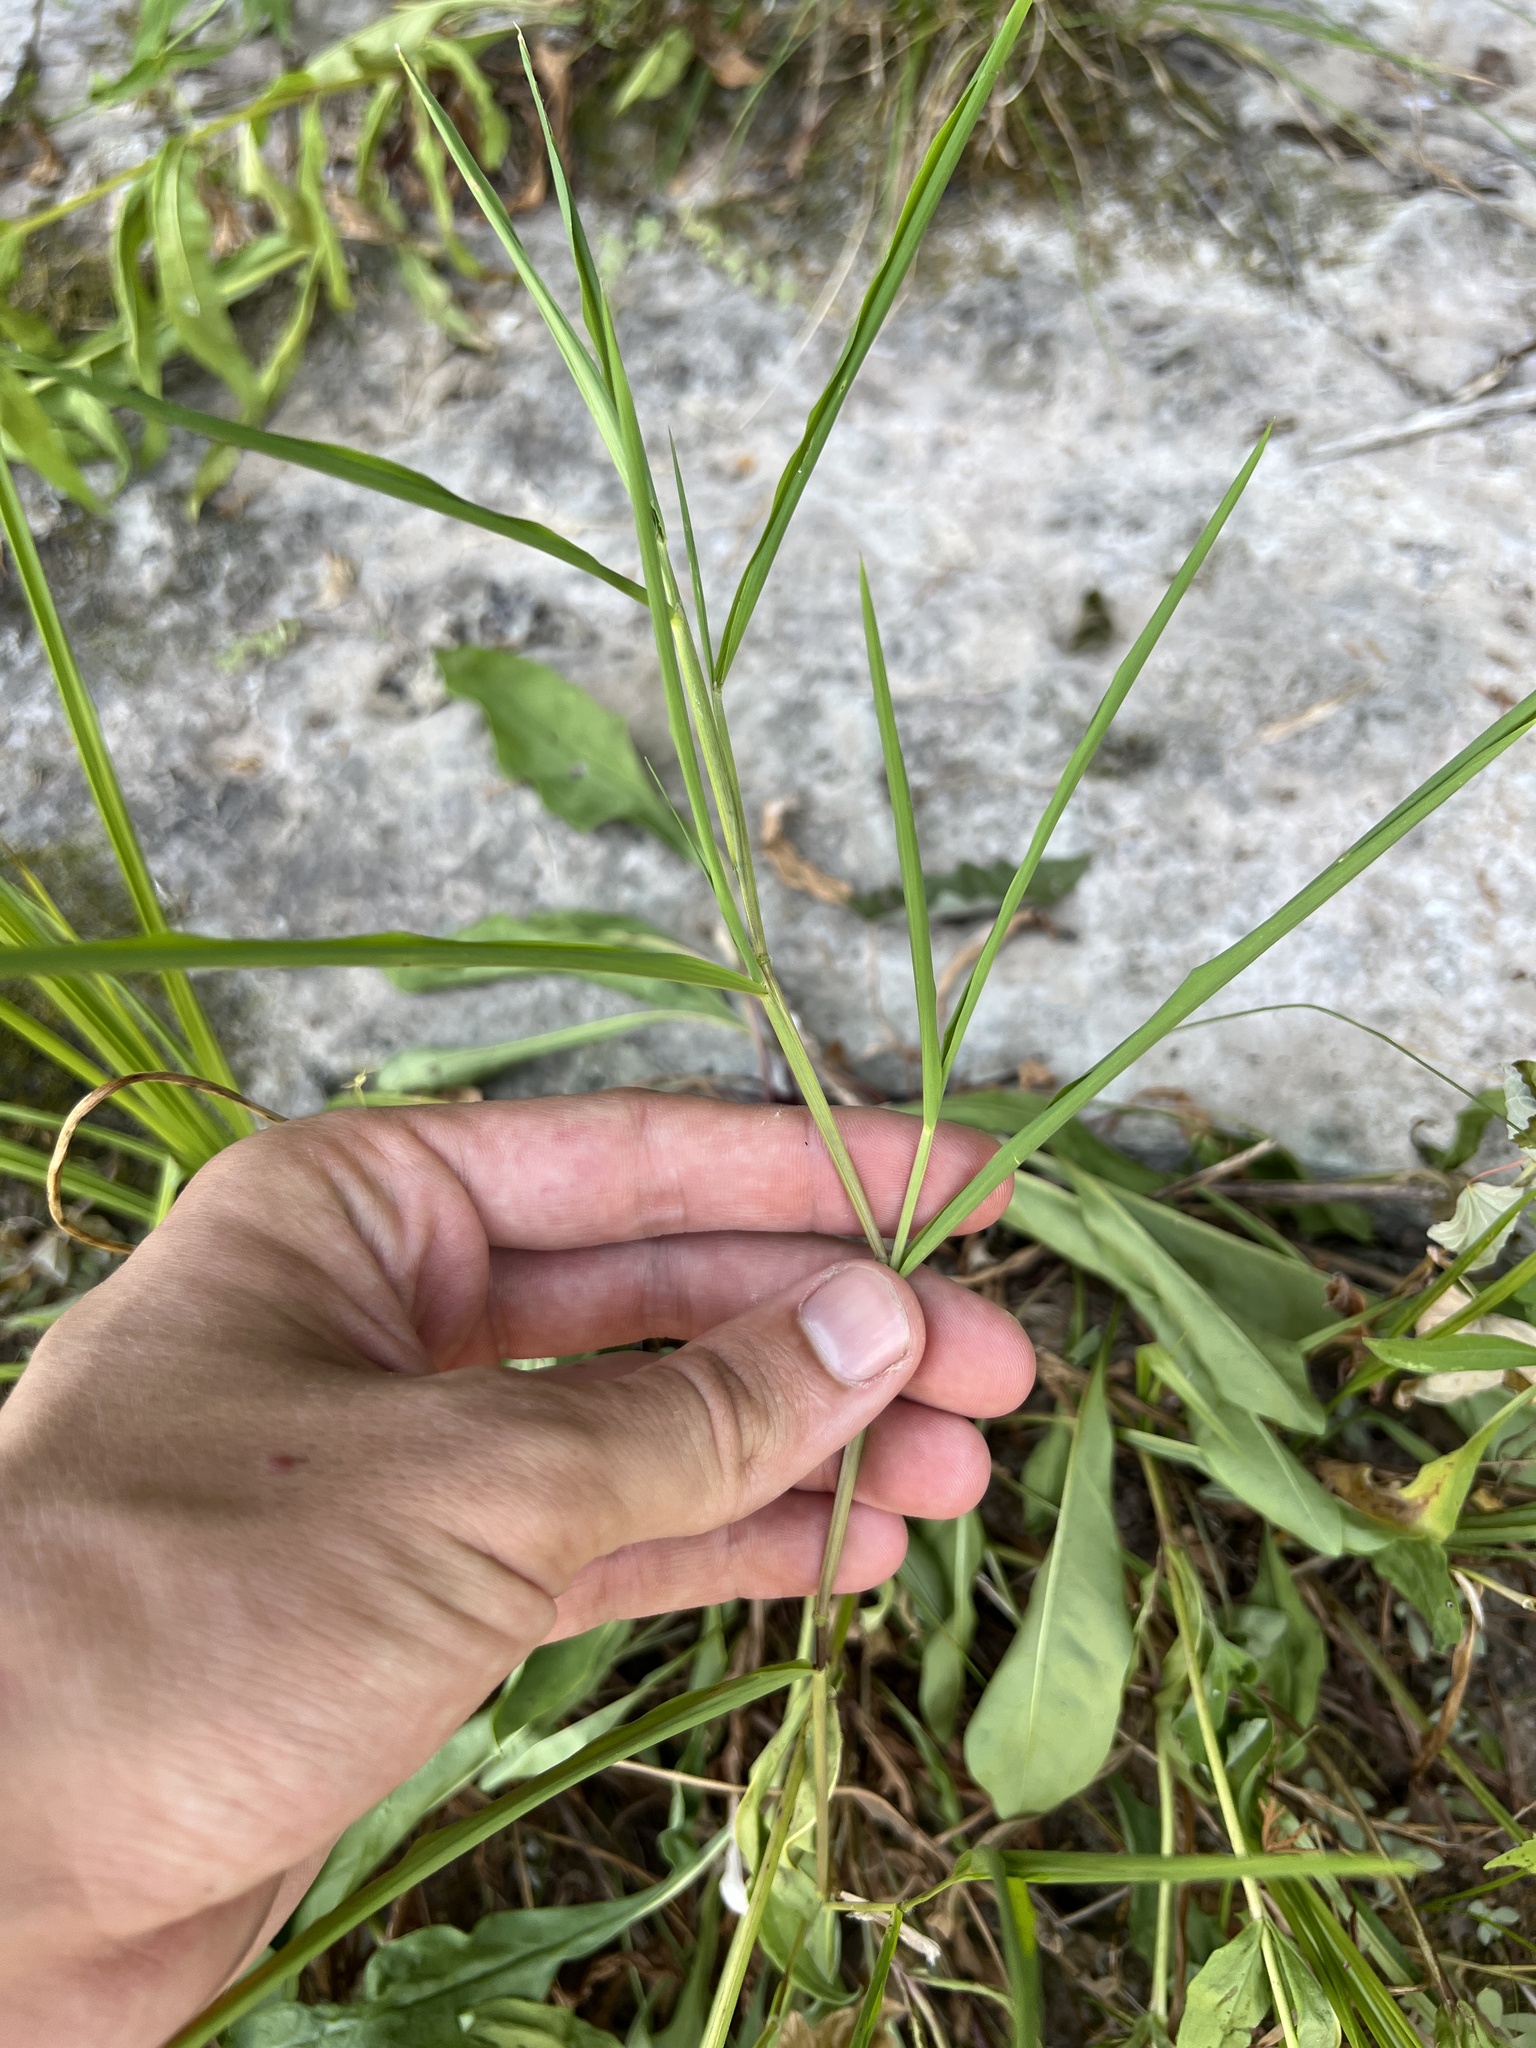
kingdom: Plantae
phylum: Tracheophyta
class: Liliopsida
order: Poales
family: Poaceae
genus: Leersia
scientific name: Leersia oryzoides
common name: Cut-grass
